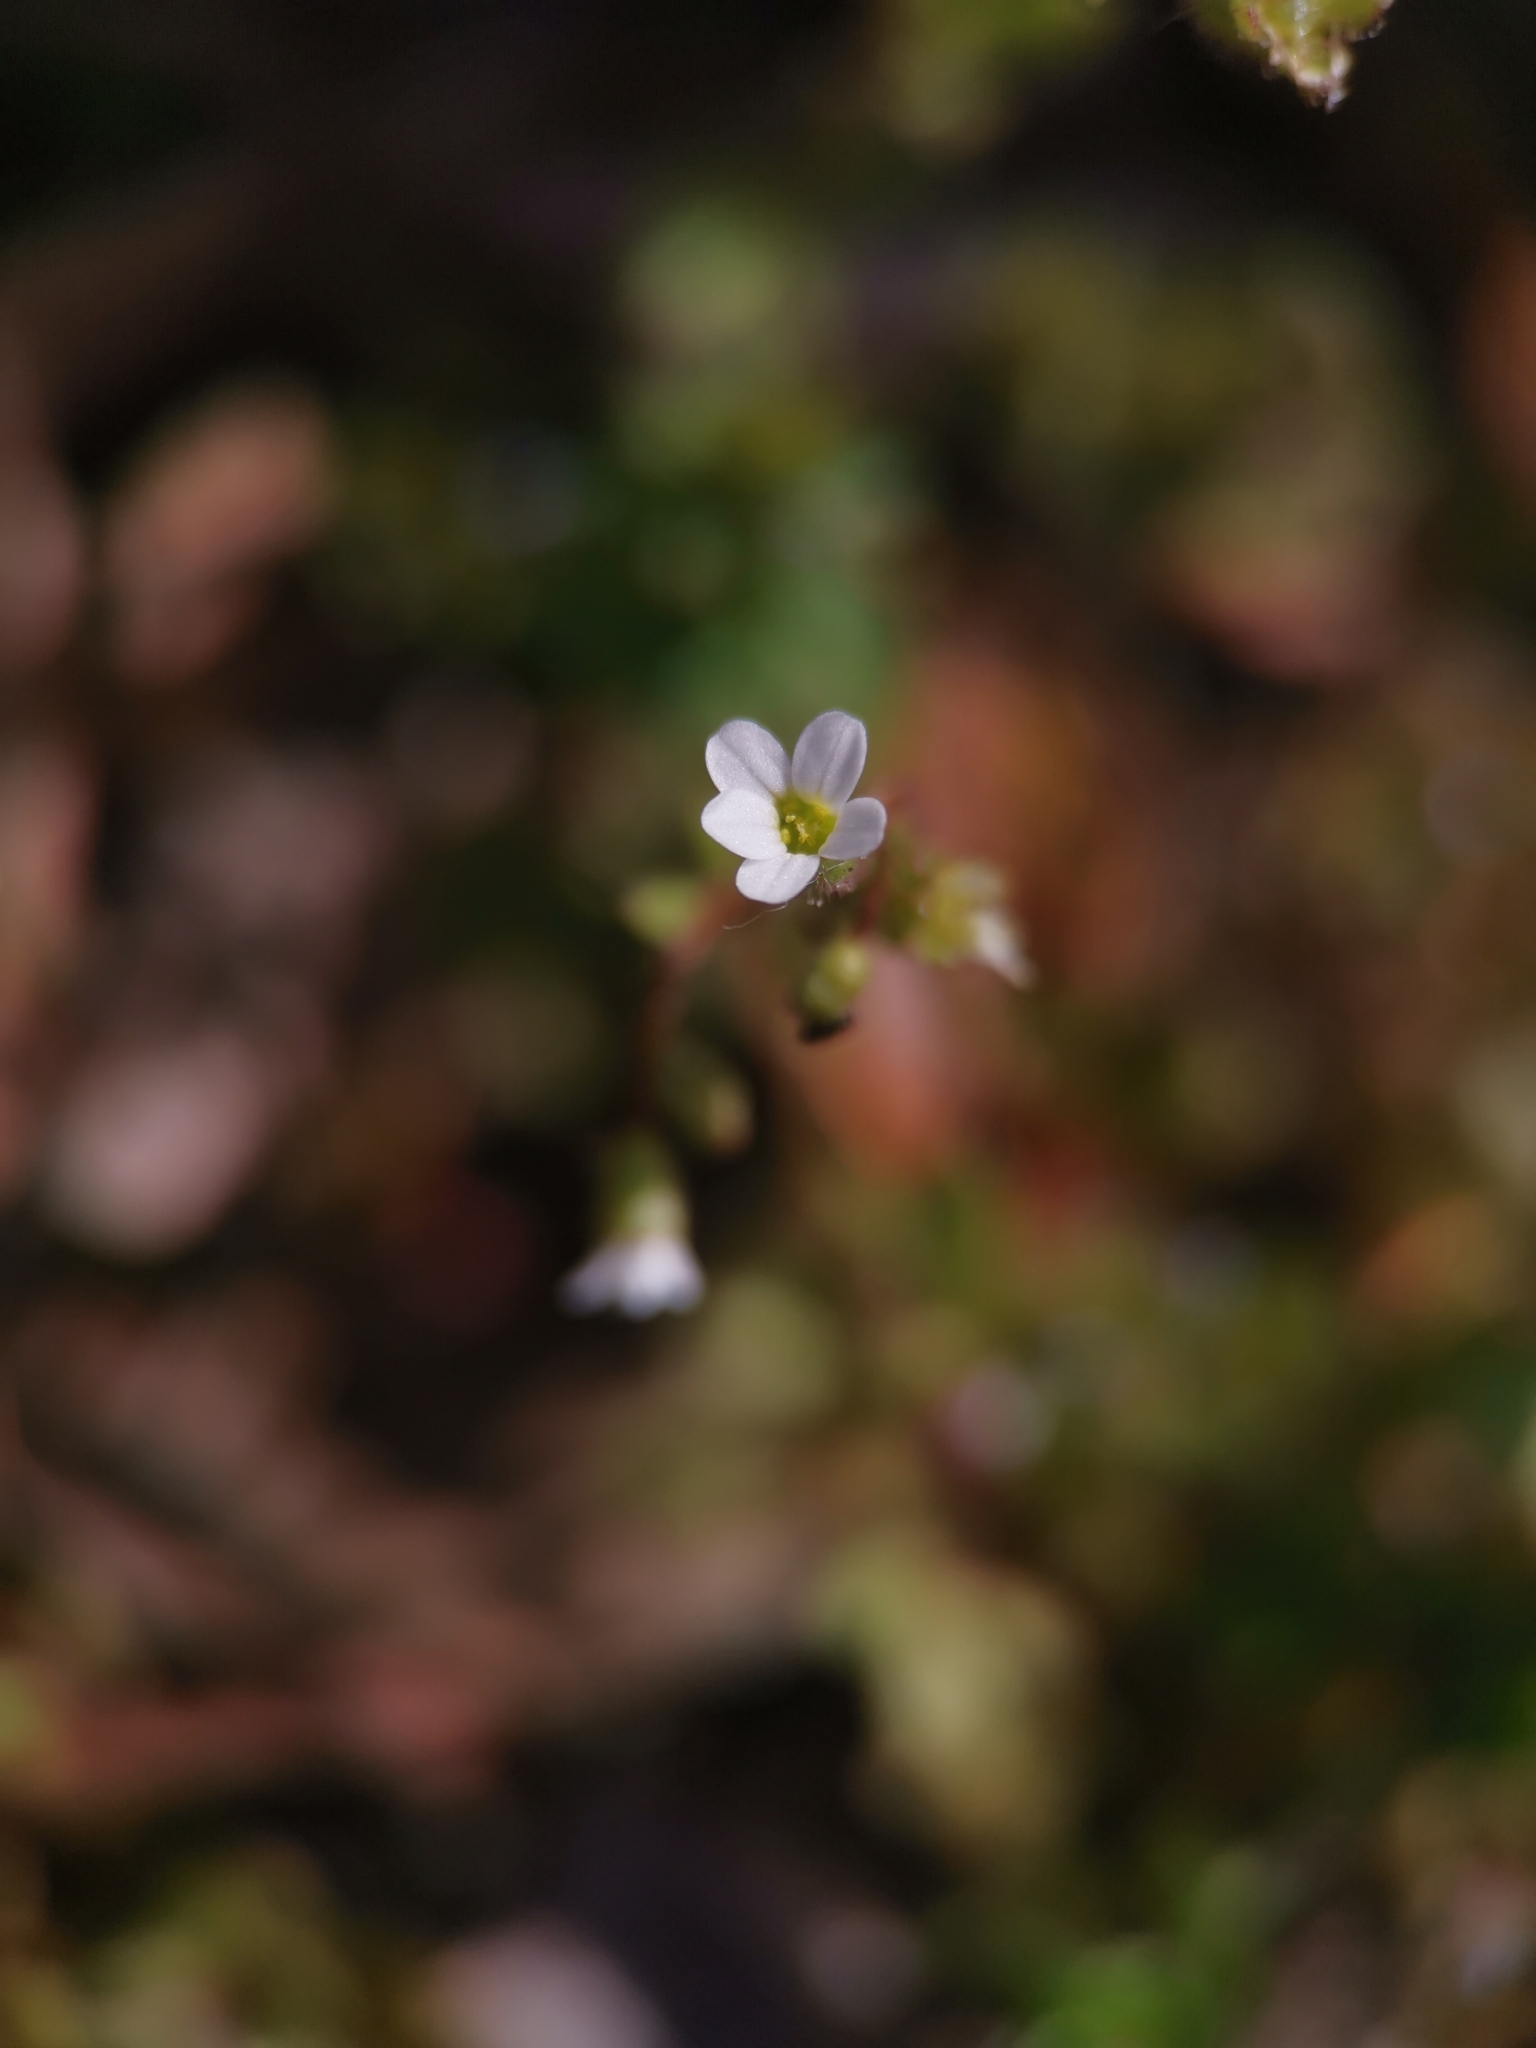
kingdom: Plantae
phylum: Tracheophyta
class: Magnoliopsida
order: Saxifragales
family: Saxifragaceae
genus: Saxifraga
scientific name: Saxifraga tridactylites
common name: Rue-leaved saxifrage
